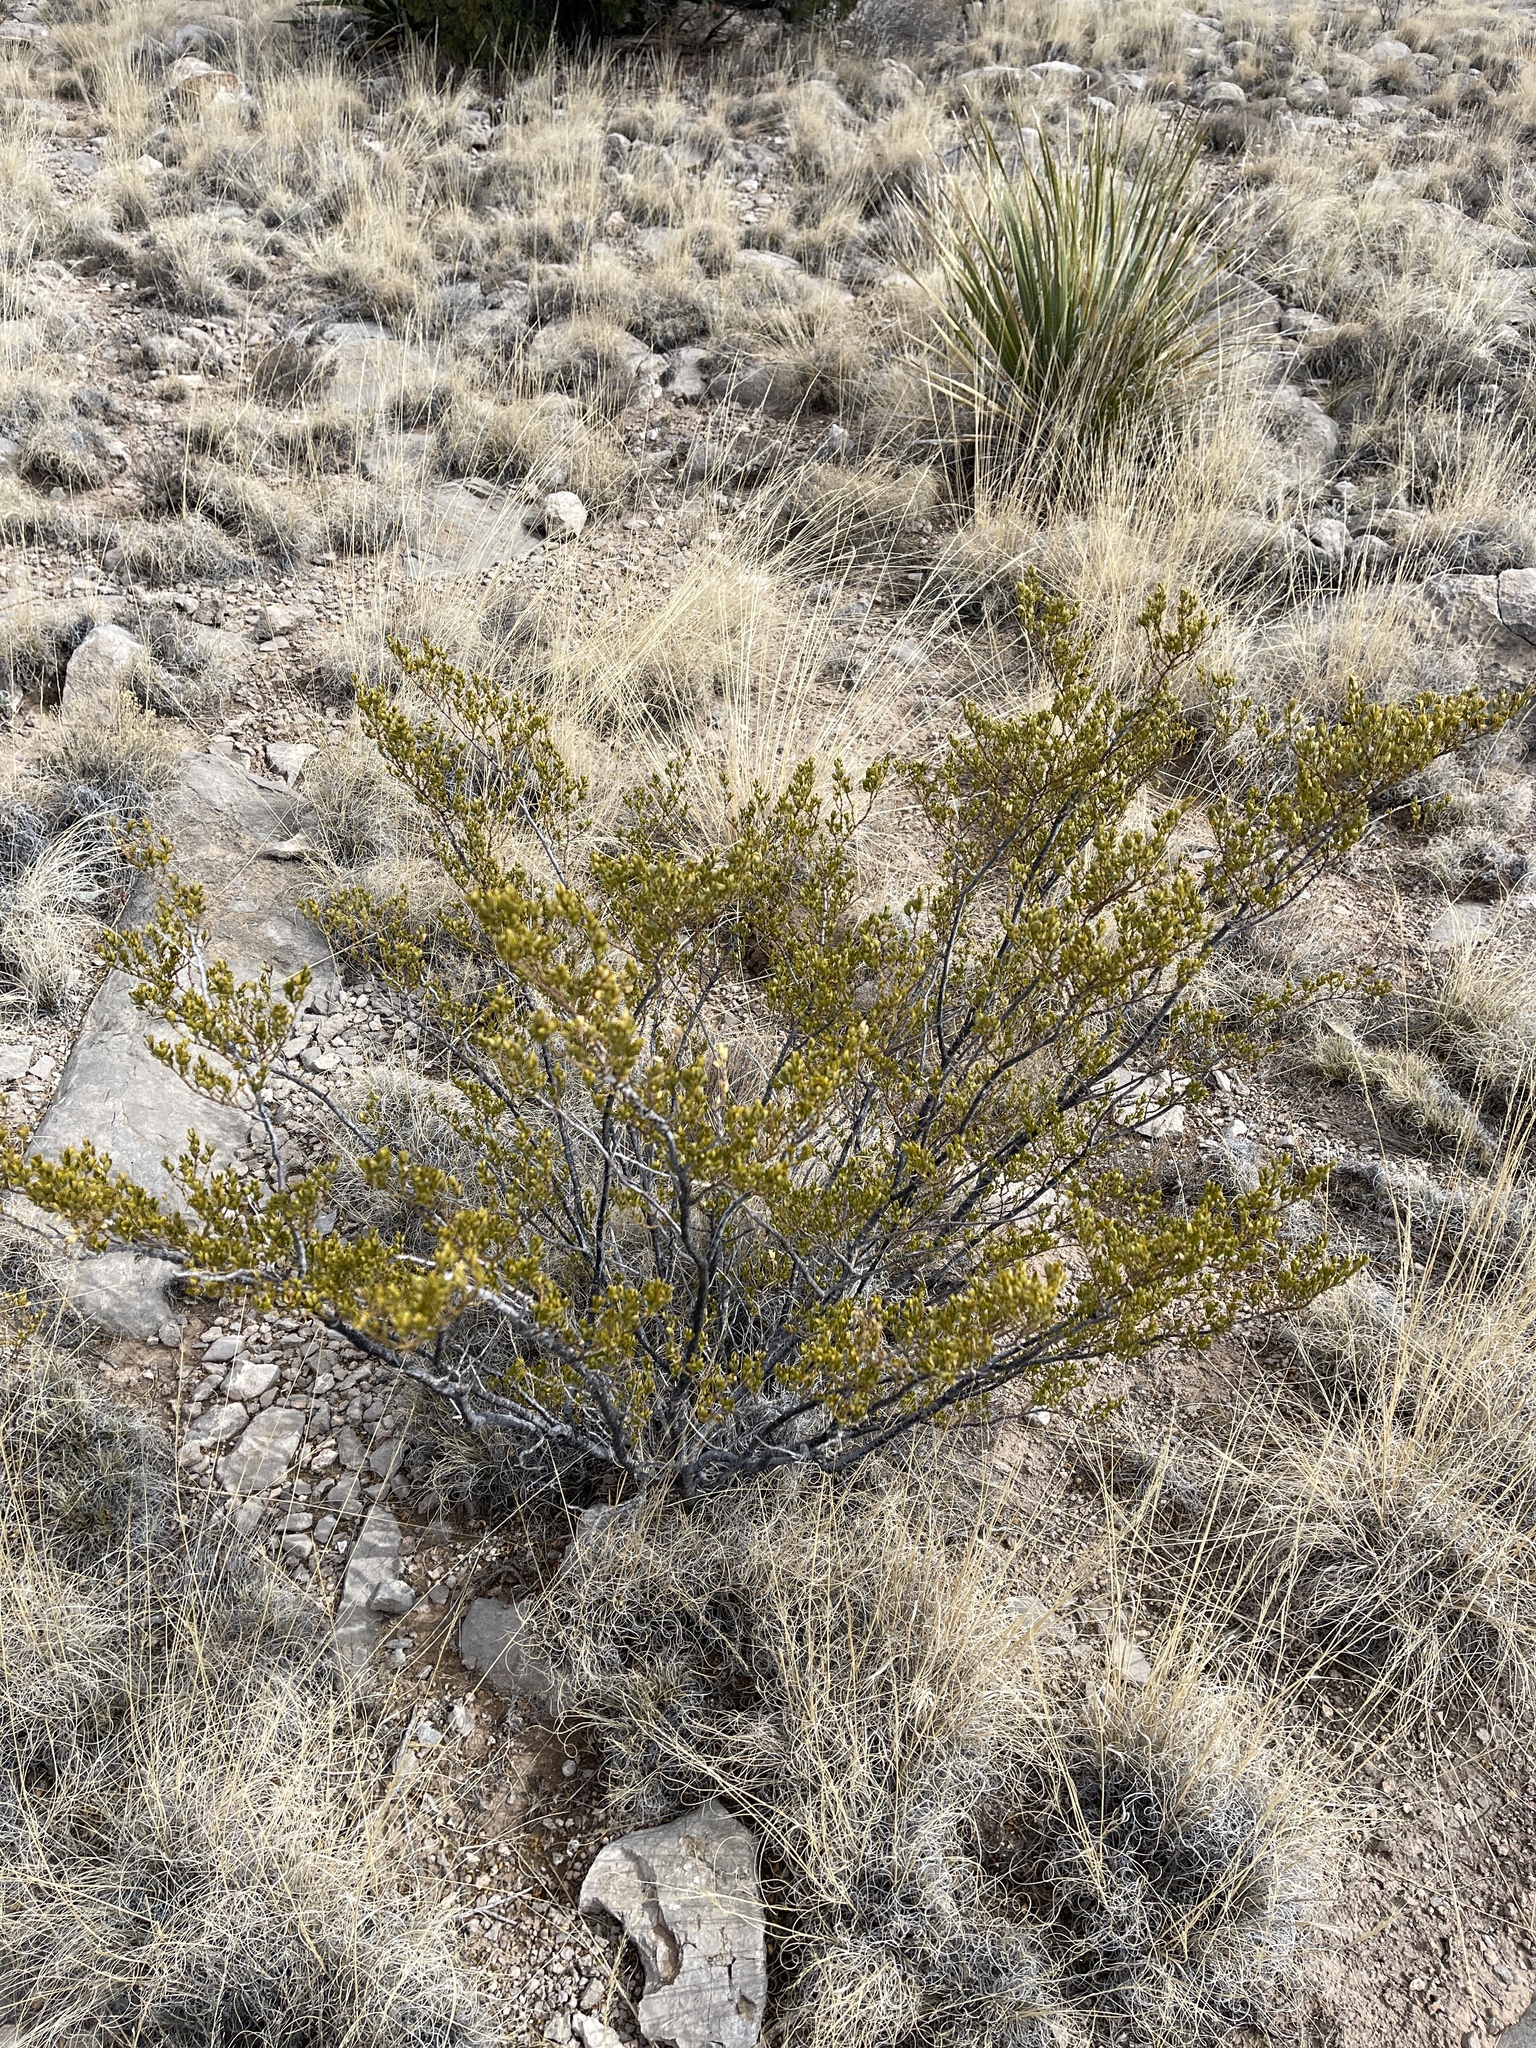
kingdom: Plantae
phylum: Tracheophyta
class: Magnoliopsida
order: Zygophyllales
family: Zygophyllaceae
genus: Larrea
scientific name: Larrea tridentata
